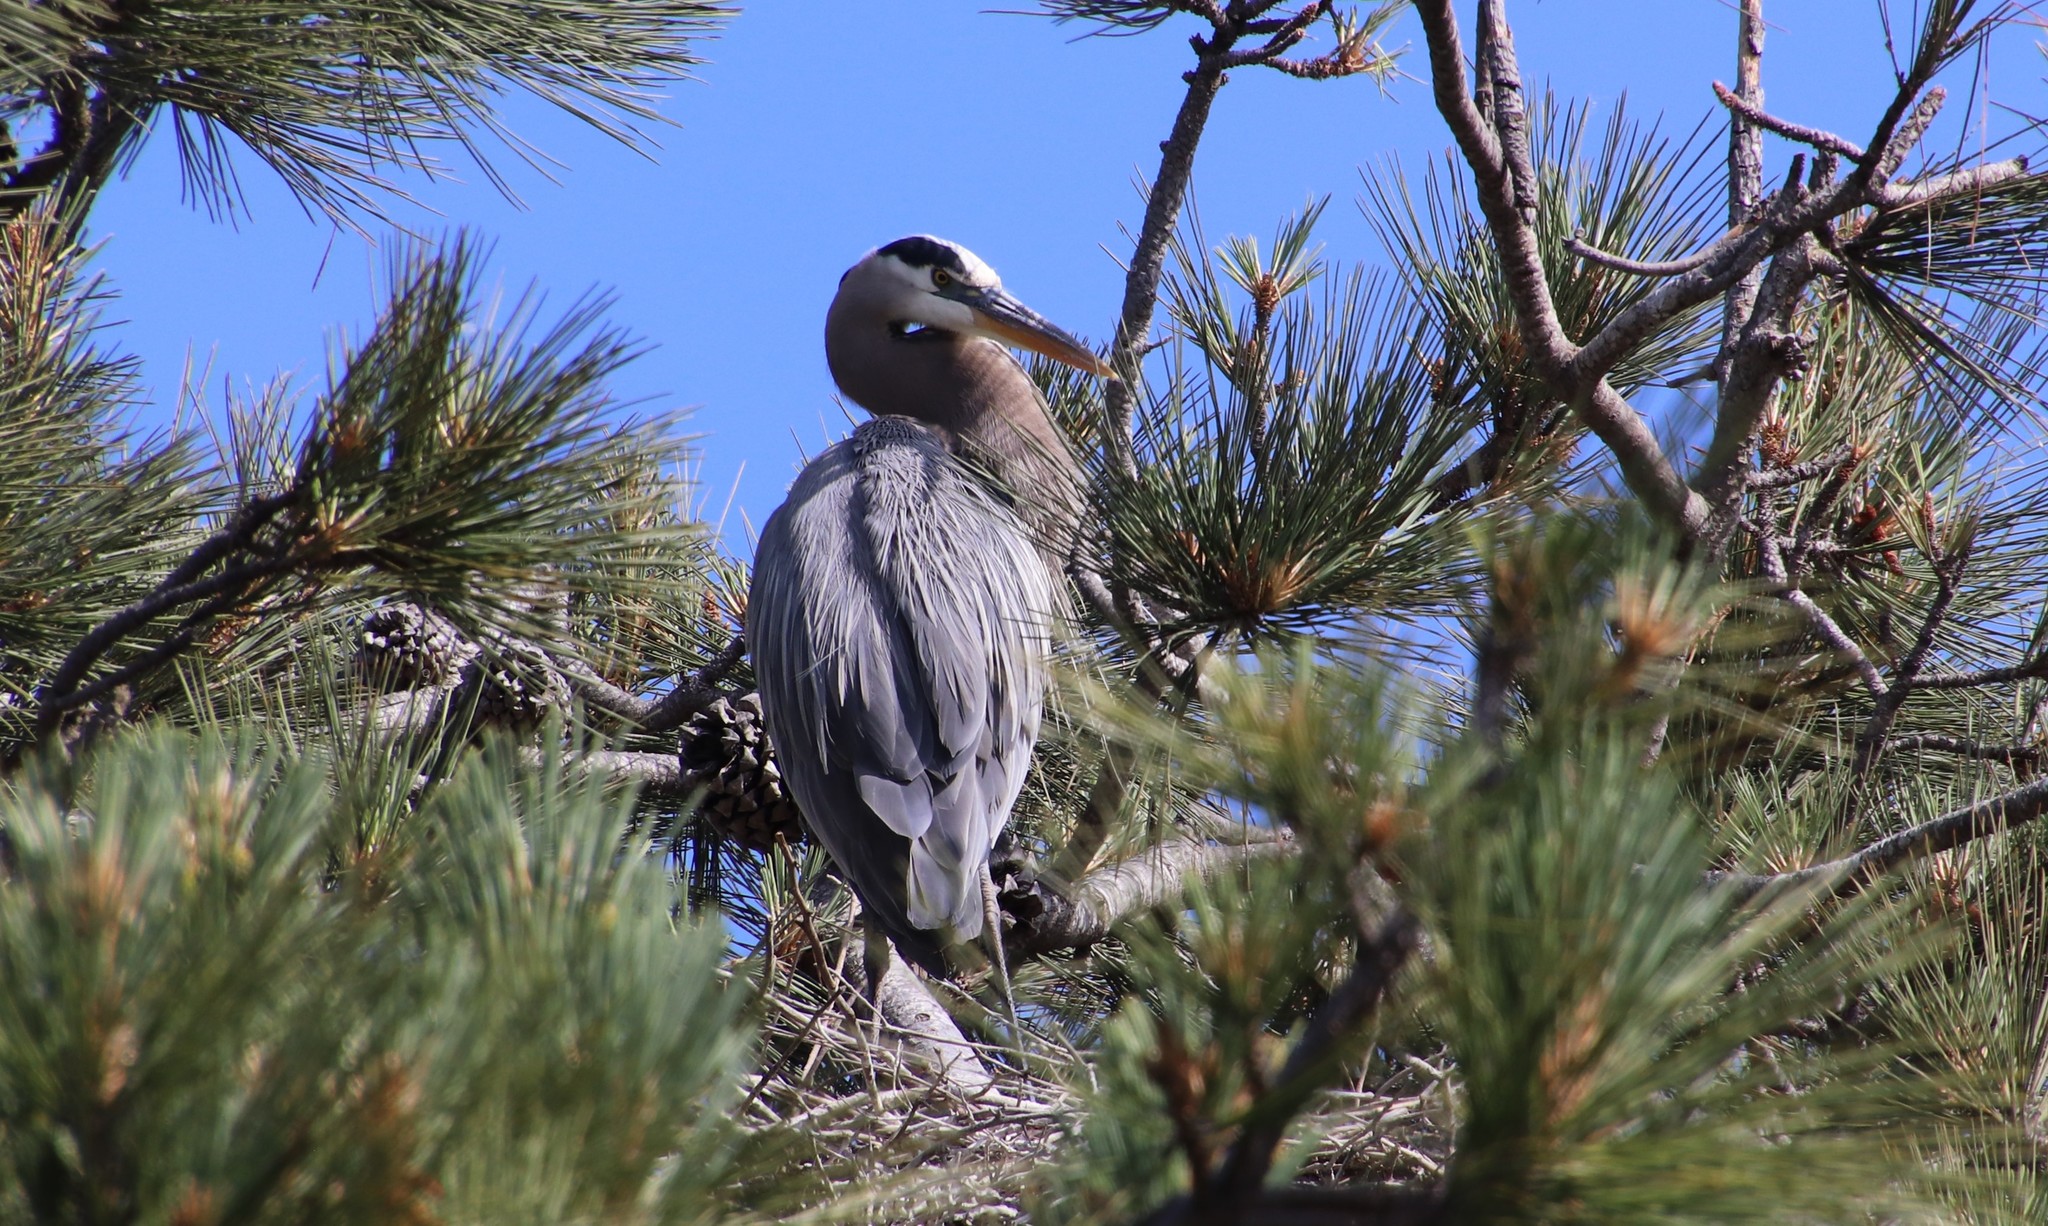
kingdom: Animalia
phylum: Chordata
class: Aves
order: Pelecaniformes
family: Ardeidae
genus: Ardea
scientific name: Ardea herodias
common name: Great blue heron
